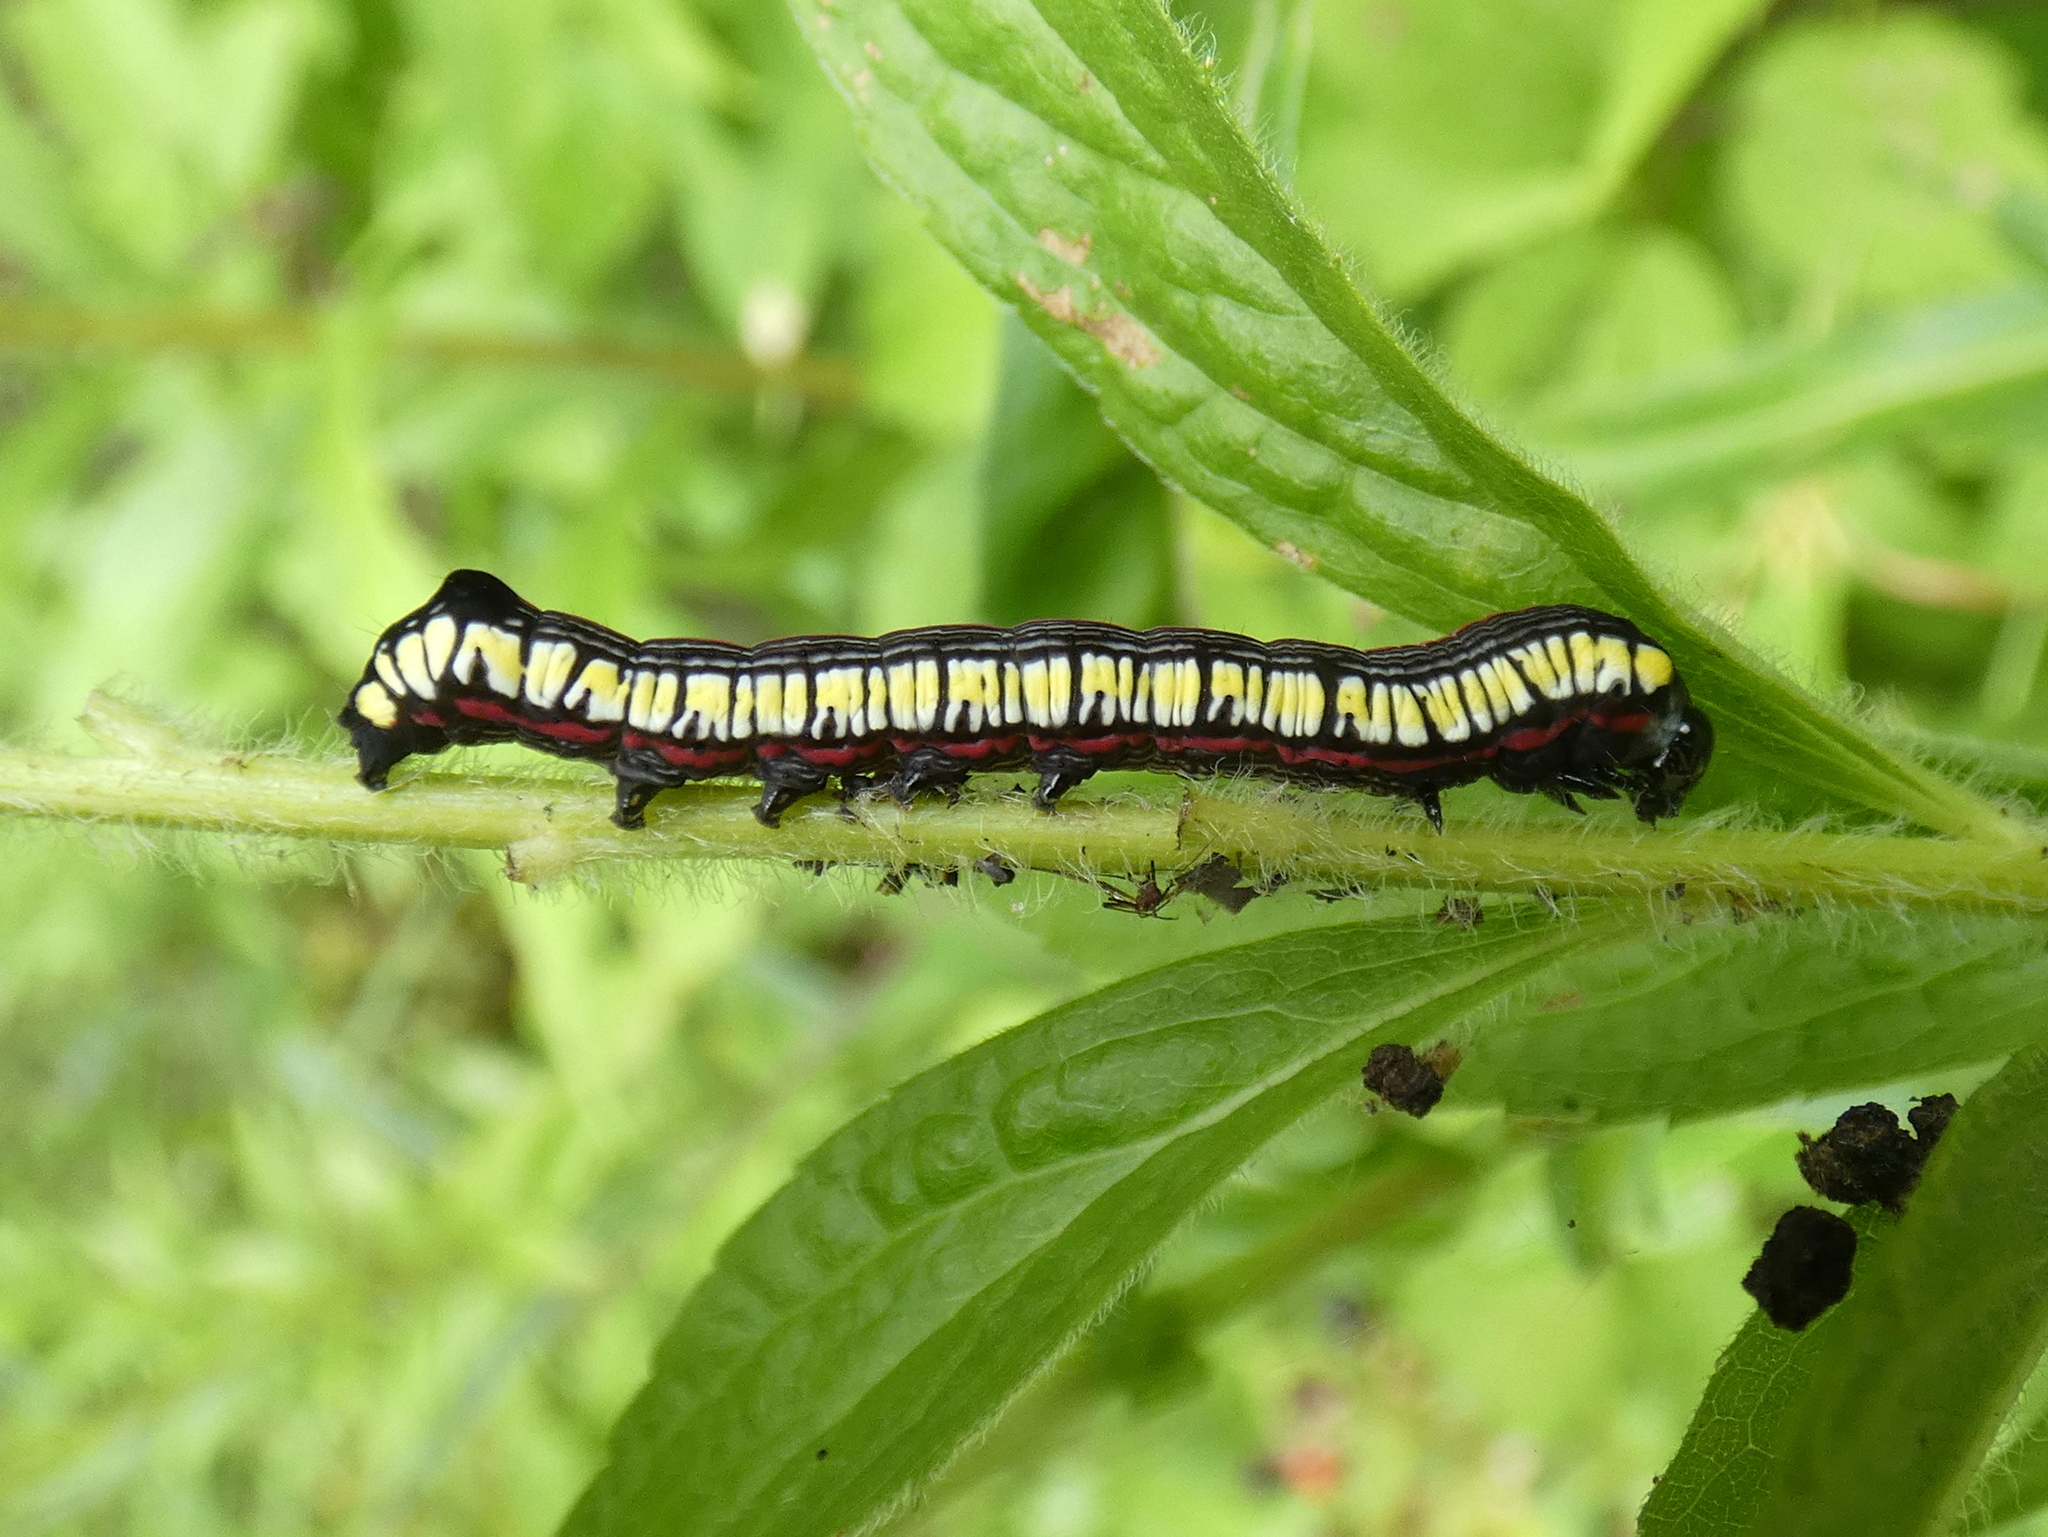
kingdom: Animalia
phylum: Arthropoda
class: Insecta
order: Lepidoptera
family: Noctuidae
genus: Cucullia
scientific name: Cucullia convexipennis
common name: Brown-hooded owlet
